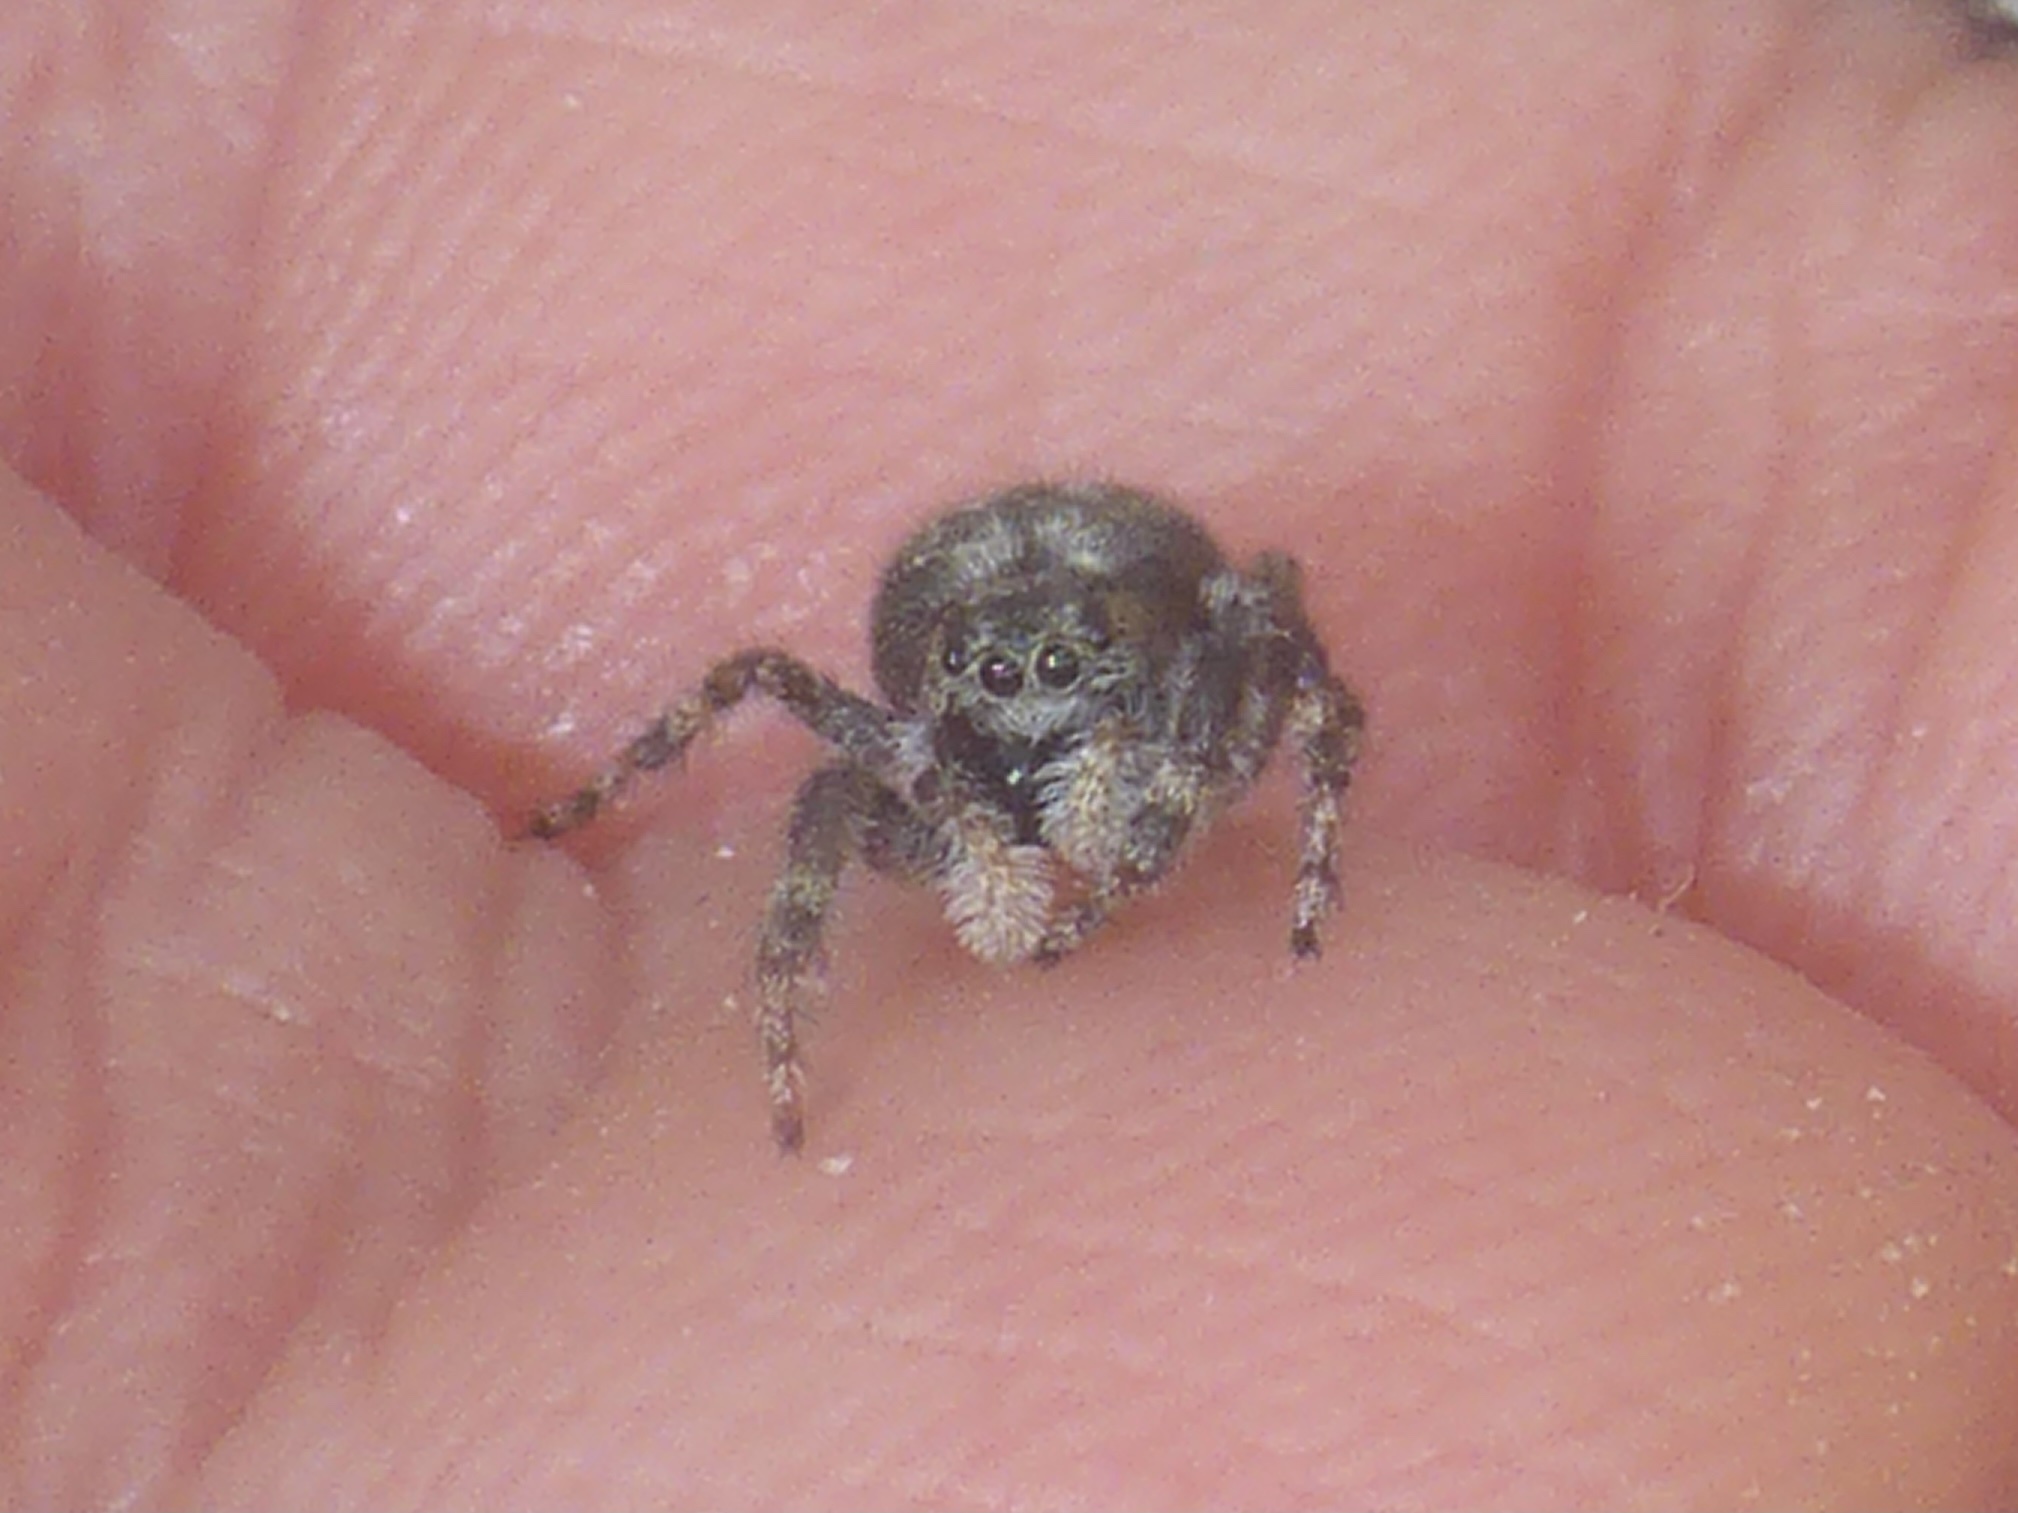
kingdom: Animalia
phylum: Arthropoda
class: Arachnida
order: Araneae
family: Salticidae
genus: Terralonus
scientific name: Terralonus californicus
